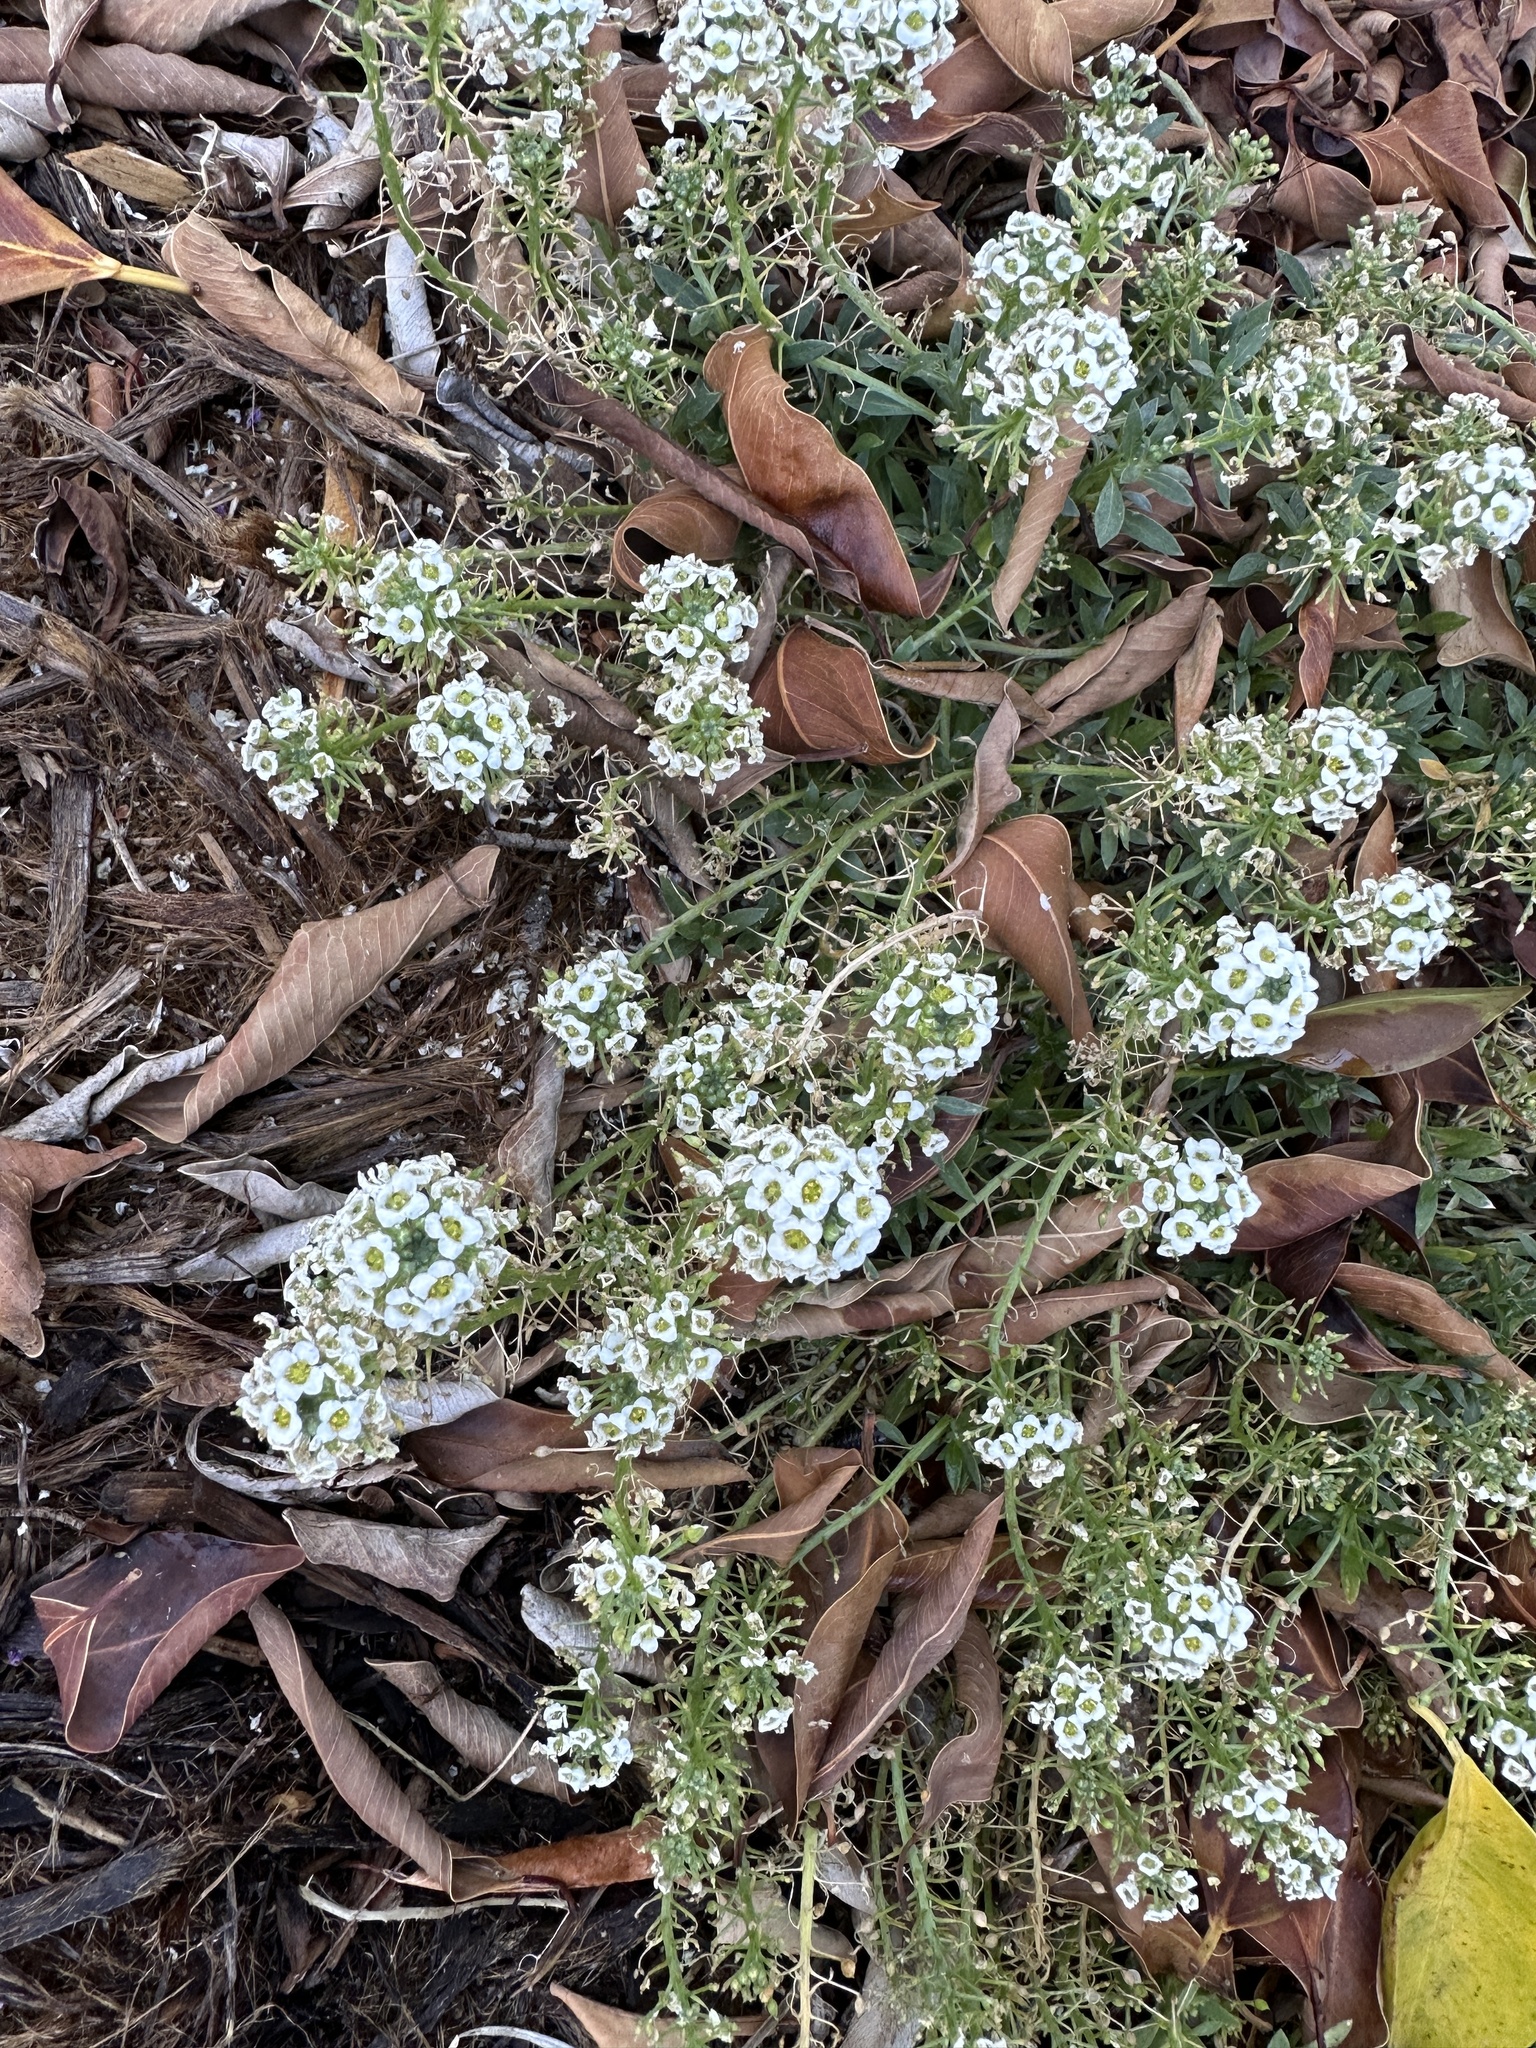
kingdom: Plantae
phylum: Tracheophyta
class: Magnoliopsida
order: Brassicales
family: Brassicaceae
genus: Lobularia
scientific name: Lobularia maritima
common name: Sweet alison
